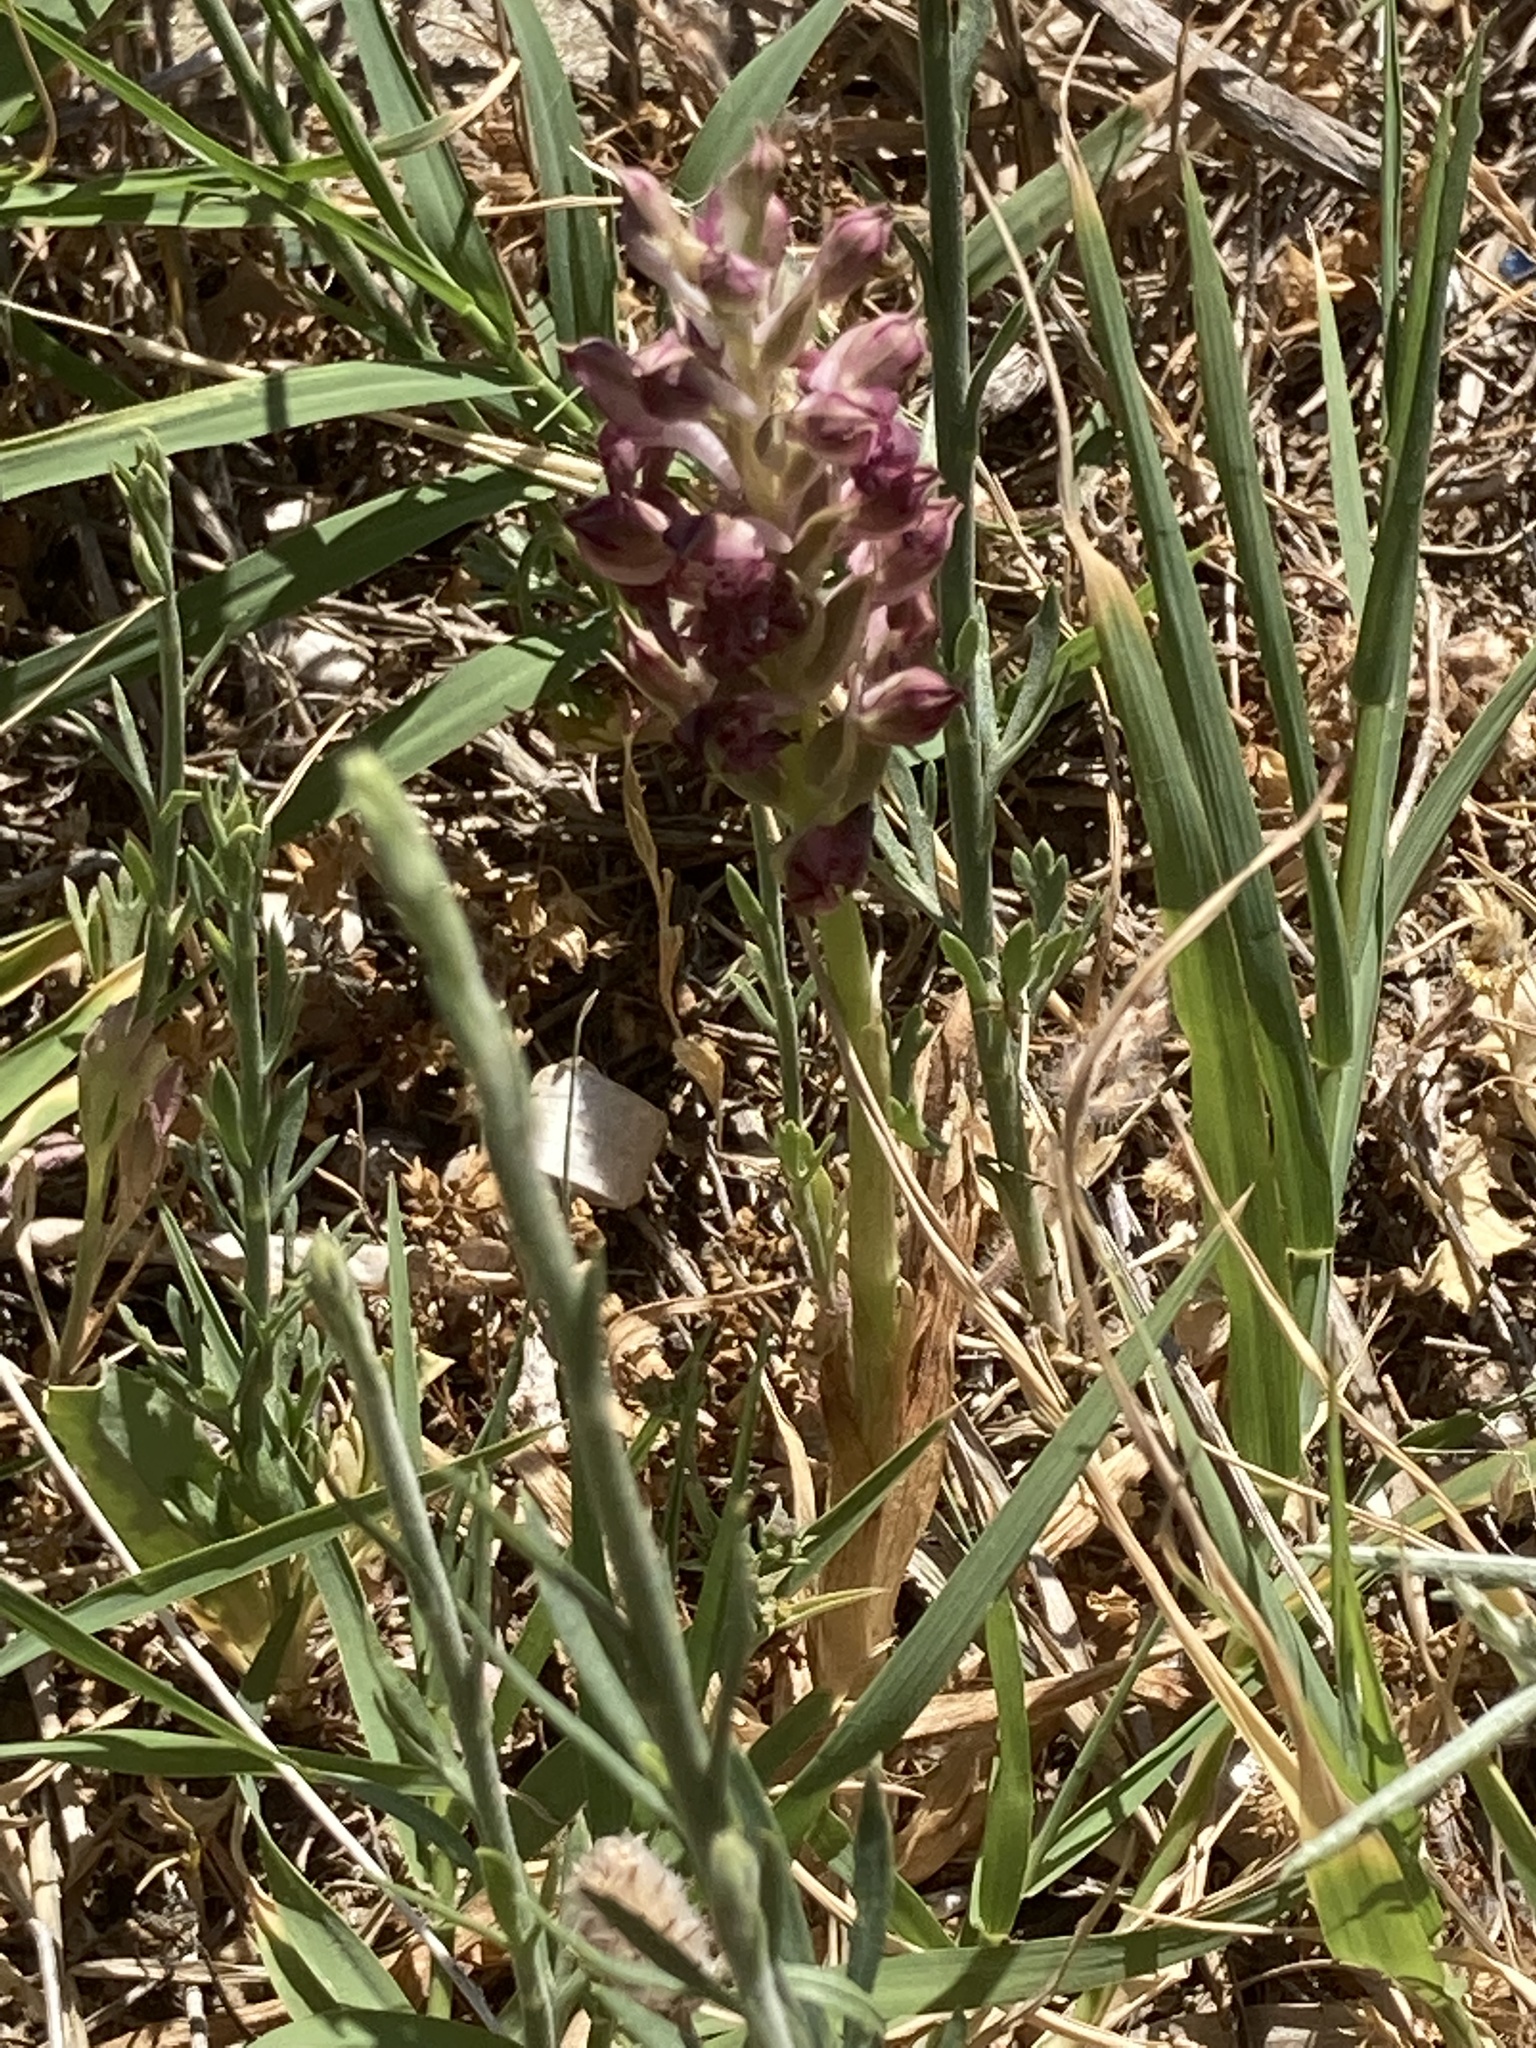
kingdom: Plantae
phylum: Tracheophyta
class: Liliopsida
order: Asparagales
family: Orchidaceae
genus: Anacamptis
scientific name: Anacamptis coriophora
